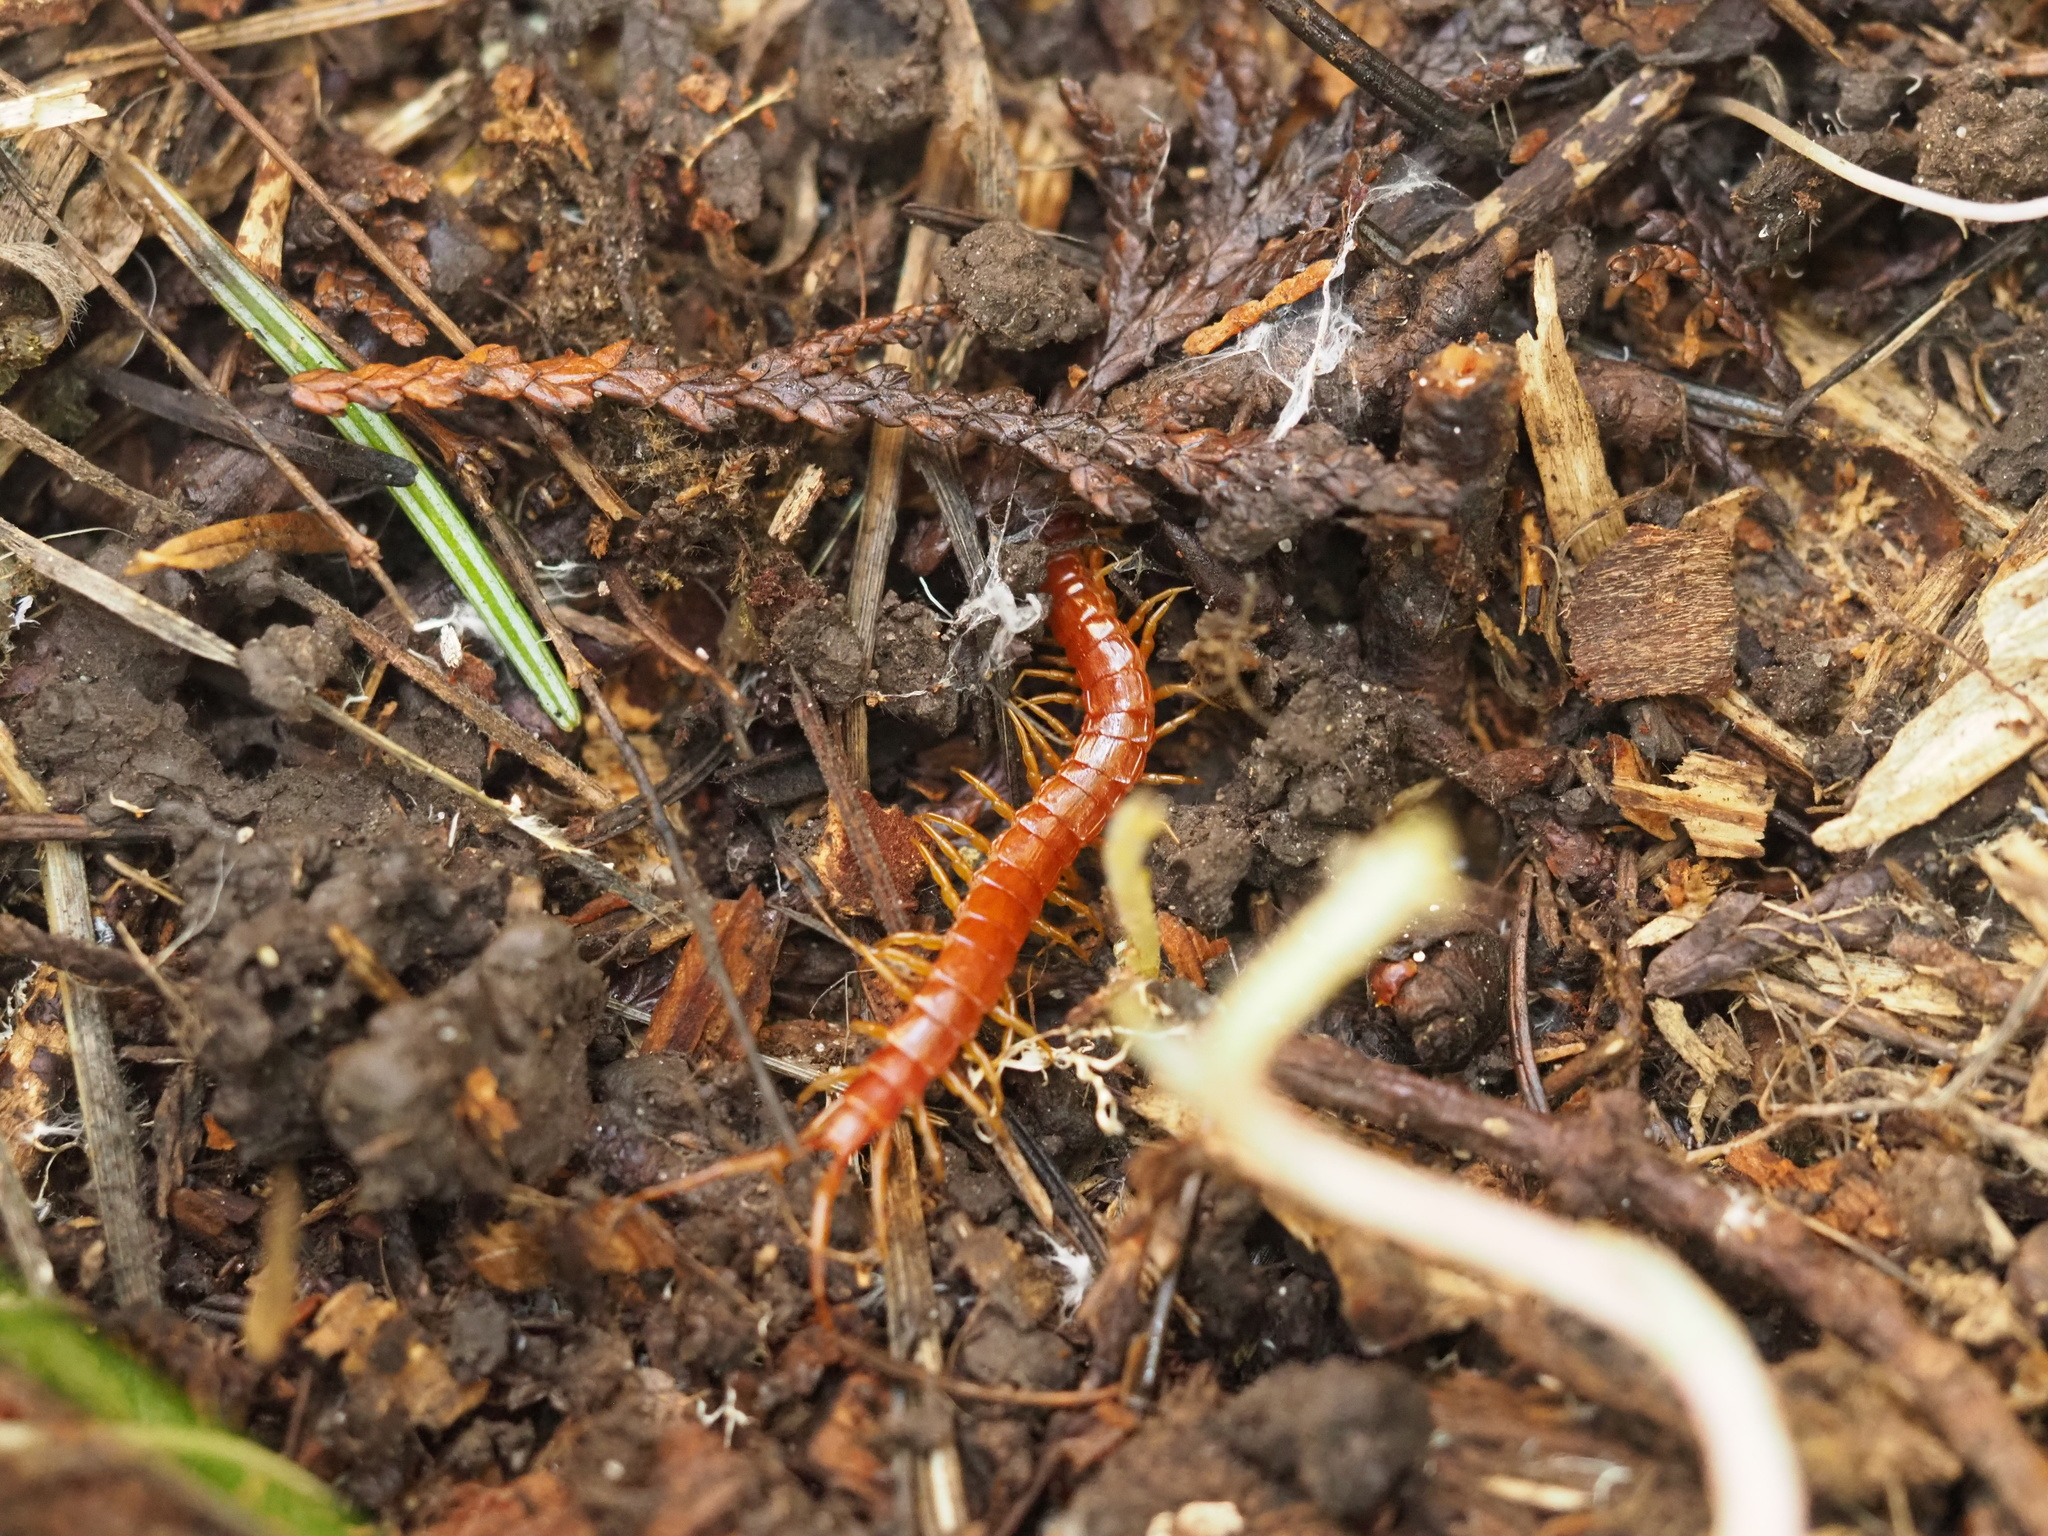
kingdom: Animalia
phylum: Arthropoda
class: Chilopoda
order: Scolopendromorpha
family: Scolopocryptopidae
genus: Scolopocryptops
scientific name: Scolopocryptops spinicaudus
